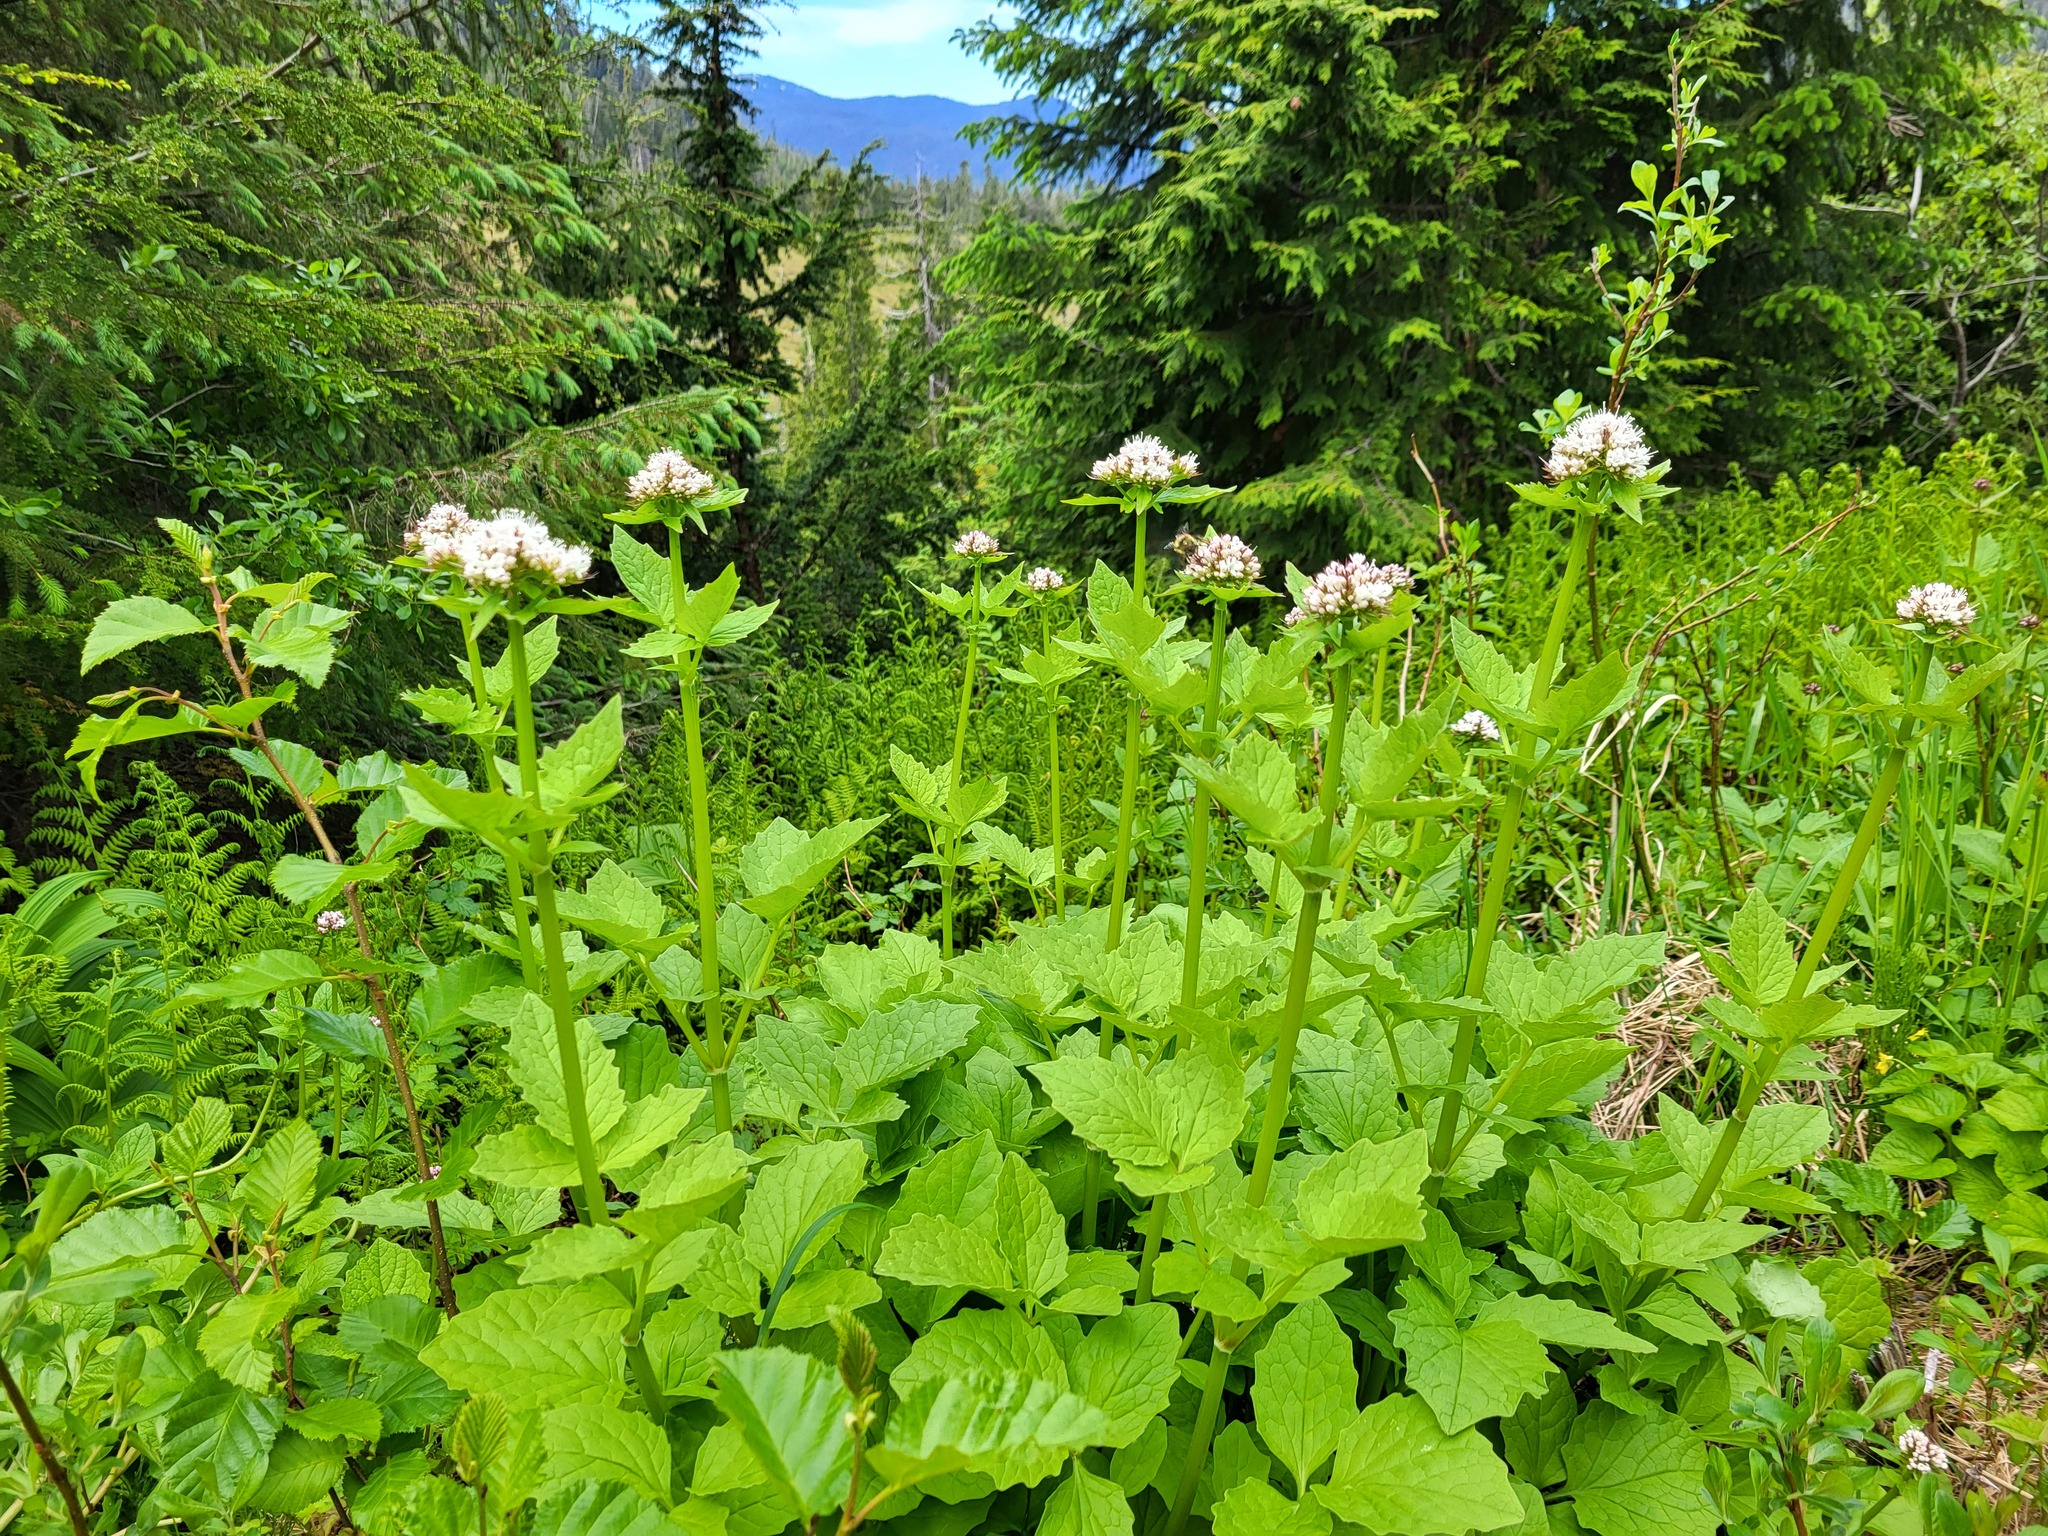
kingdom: Plantae
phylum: Tracheophyta
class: Magnoliopsida
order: Dipsacales
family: Caprifoliaceae
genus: Valeriana
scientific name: Valeriana sitchensis
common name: Pacific valerian
